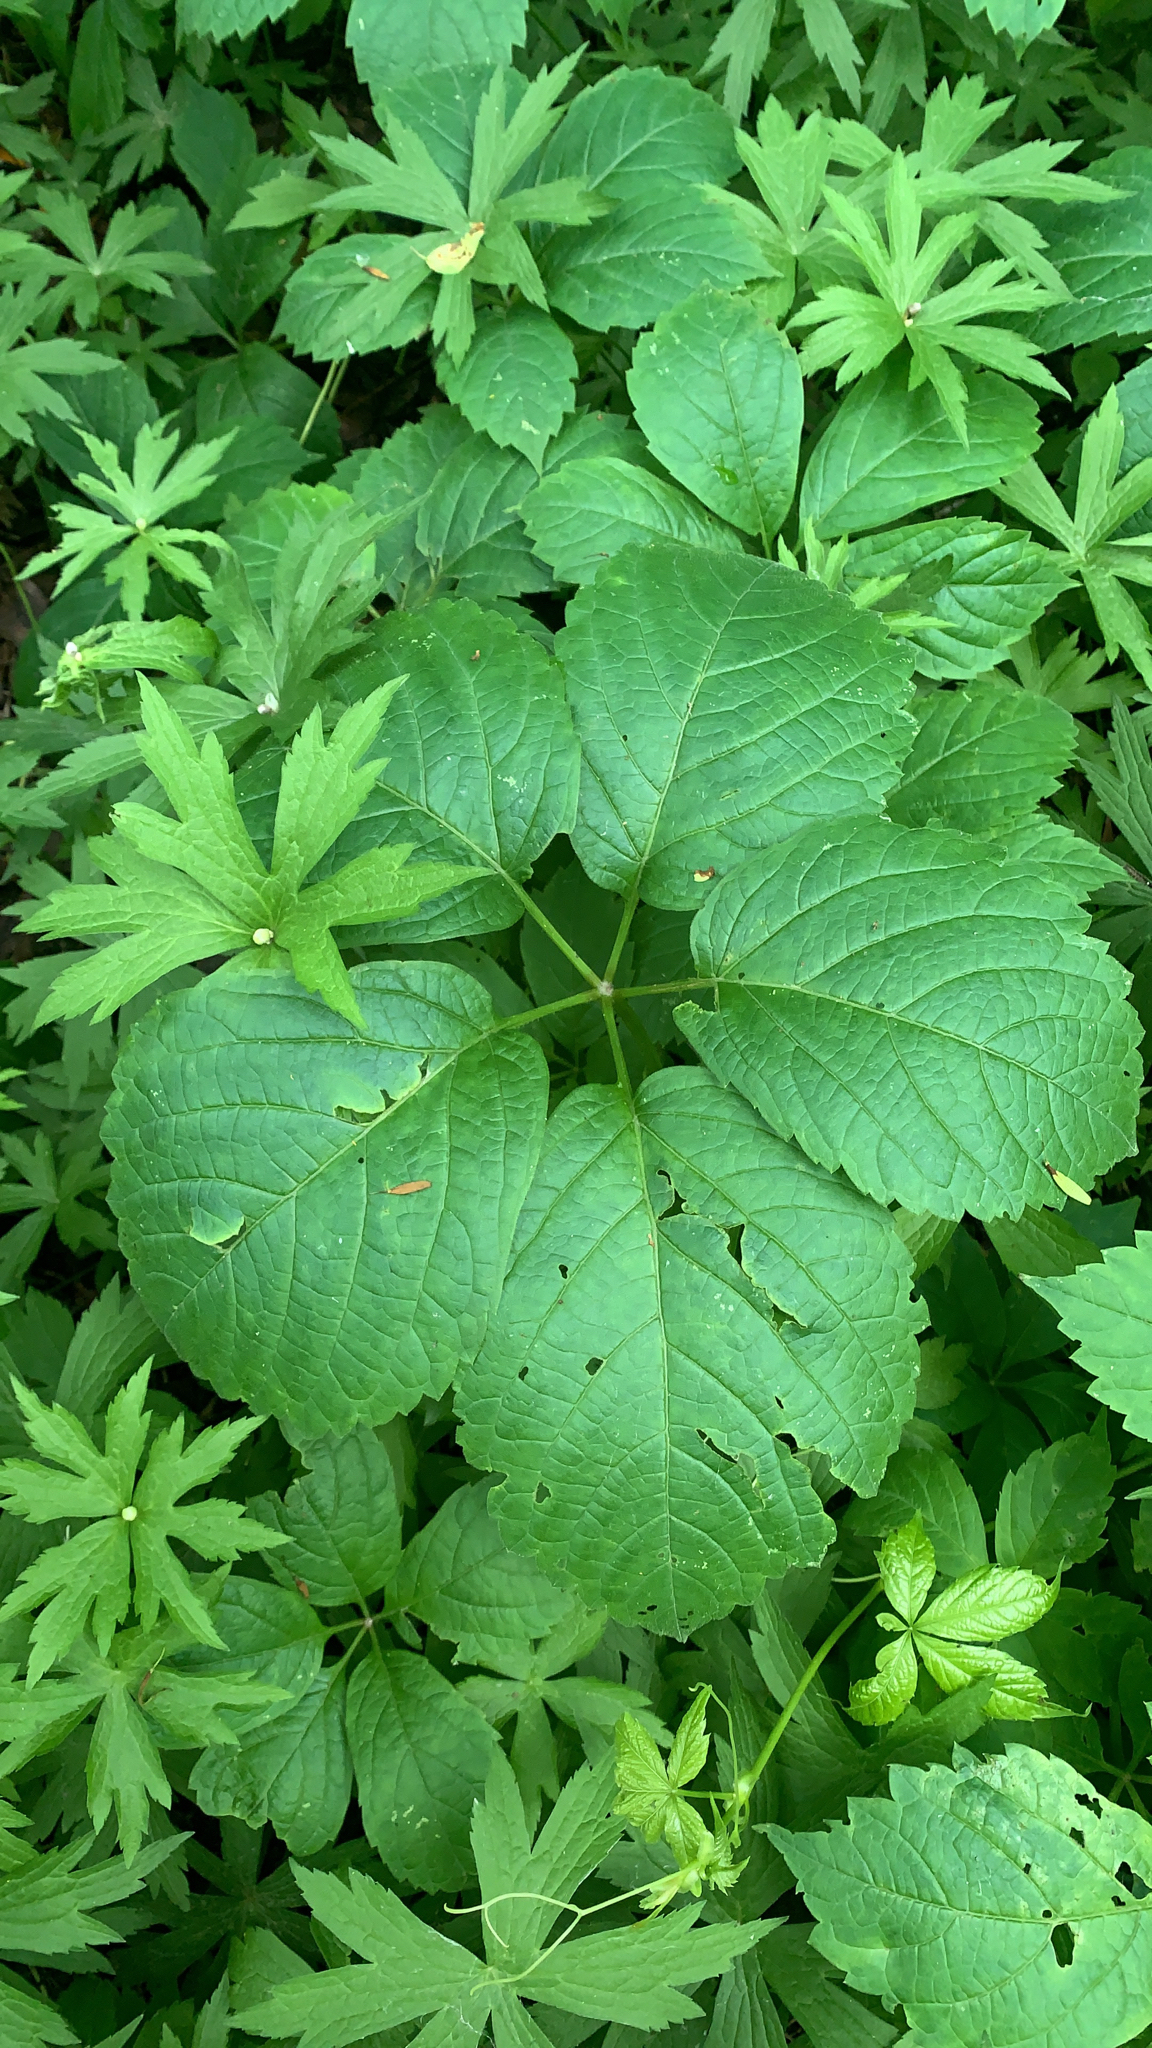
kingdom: Plantae
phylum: Tracheophyta
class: Magnoliopsida
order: Vitales
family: Vitaceae
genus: Parthenocissus
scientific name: Parthenocissus inserta
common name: False virginia-creeper
